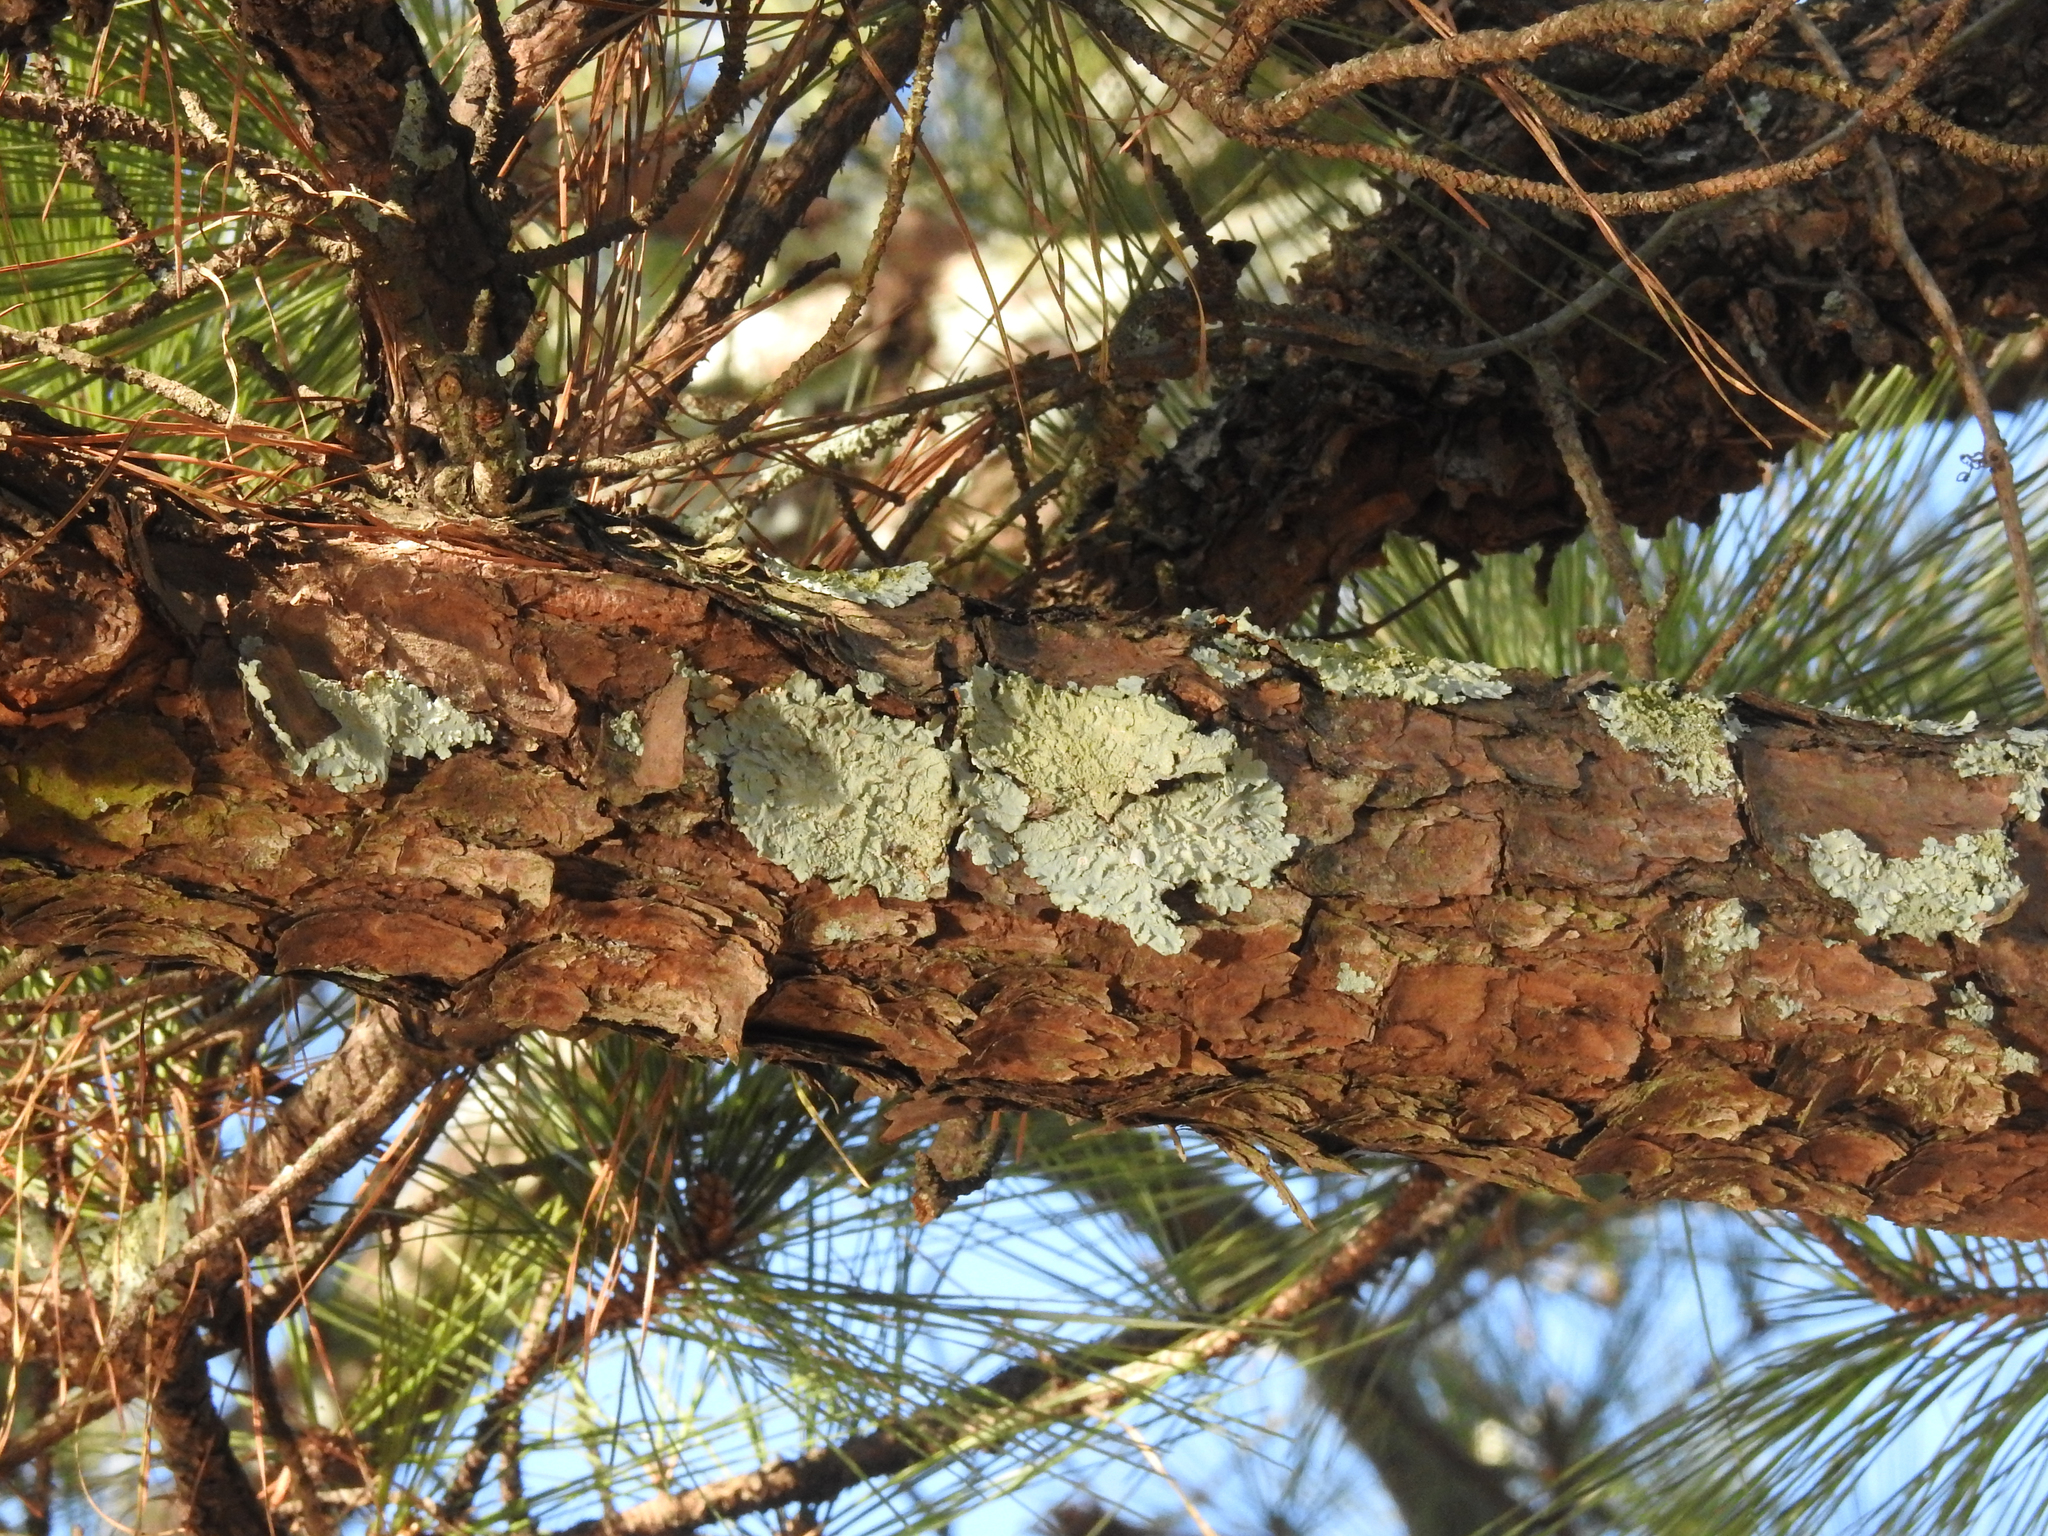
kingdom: Fungi
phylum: Ascomycota
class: Lecanoromycetes
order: Lecanorales
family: Parmeliaceae
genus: Flavoparmelia
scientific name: Flavoparmelia caperata
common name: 40-mile per hour lichen
